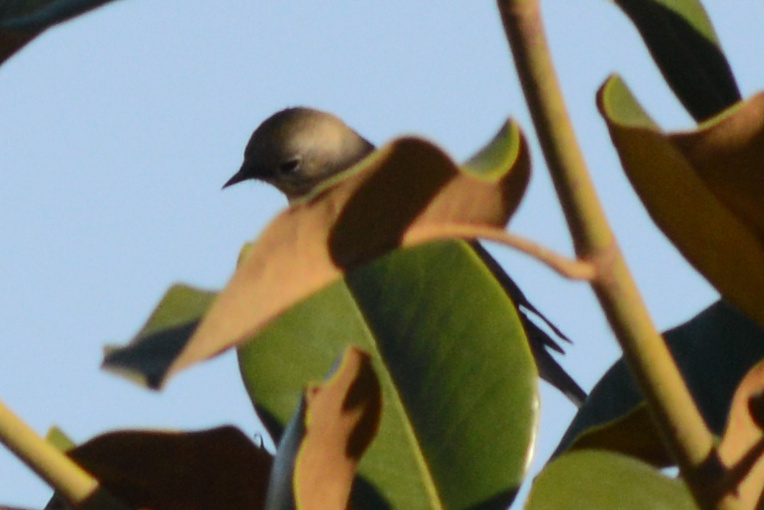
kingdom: Animalia
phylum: Chordata
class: Aves
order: Passeriformes
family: Parulidae
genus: Setophaga
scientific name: Setophaga auduboni
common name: Audubon's warbler
